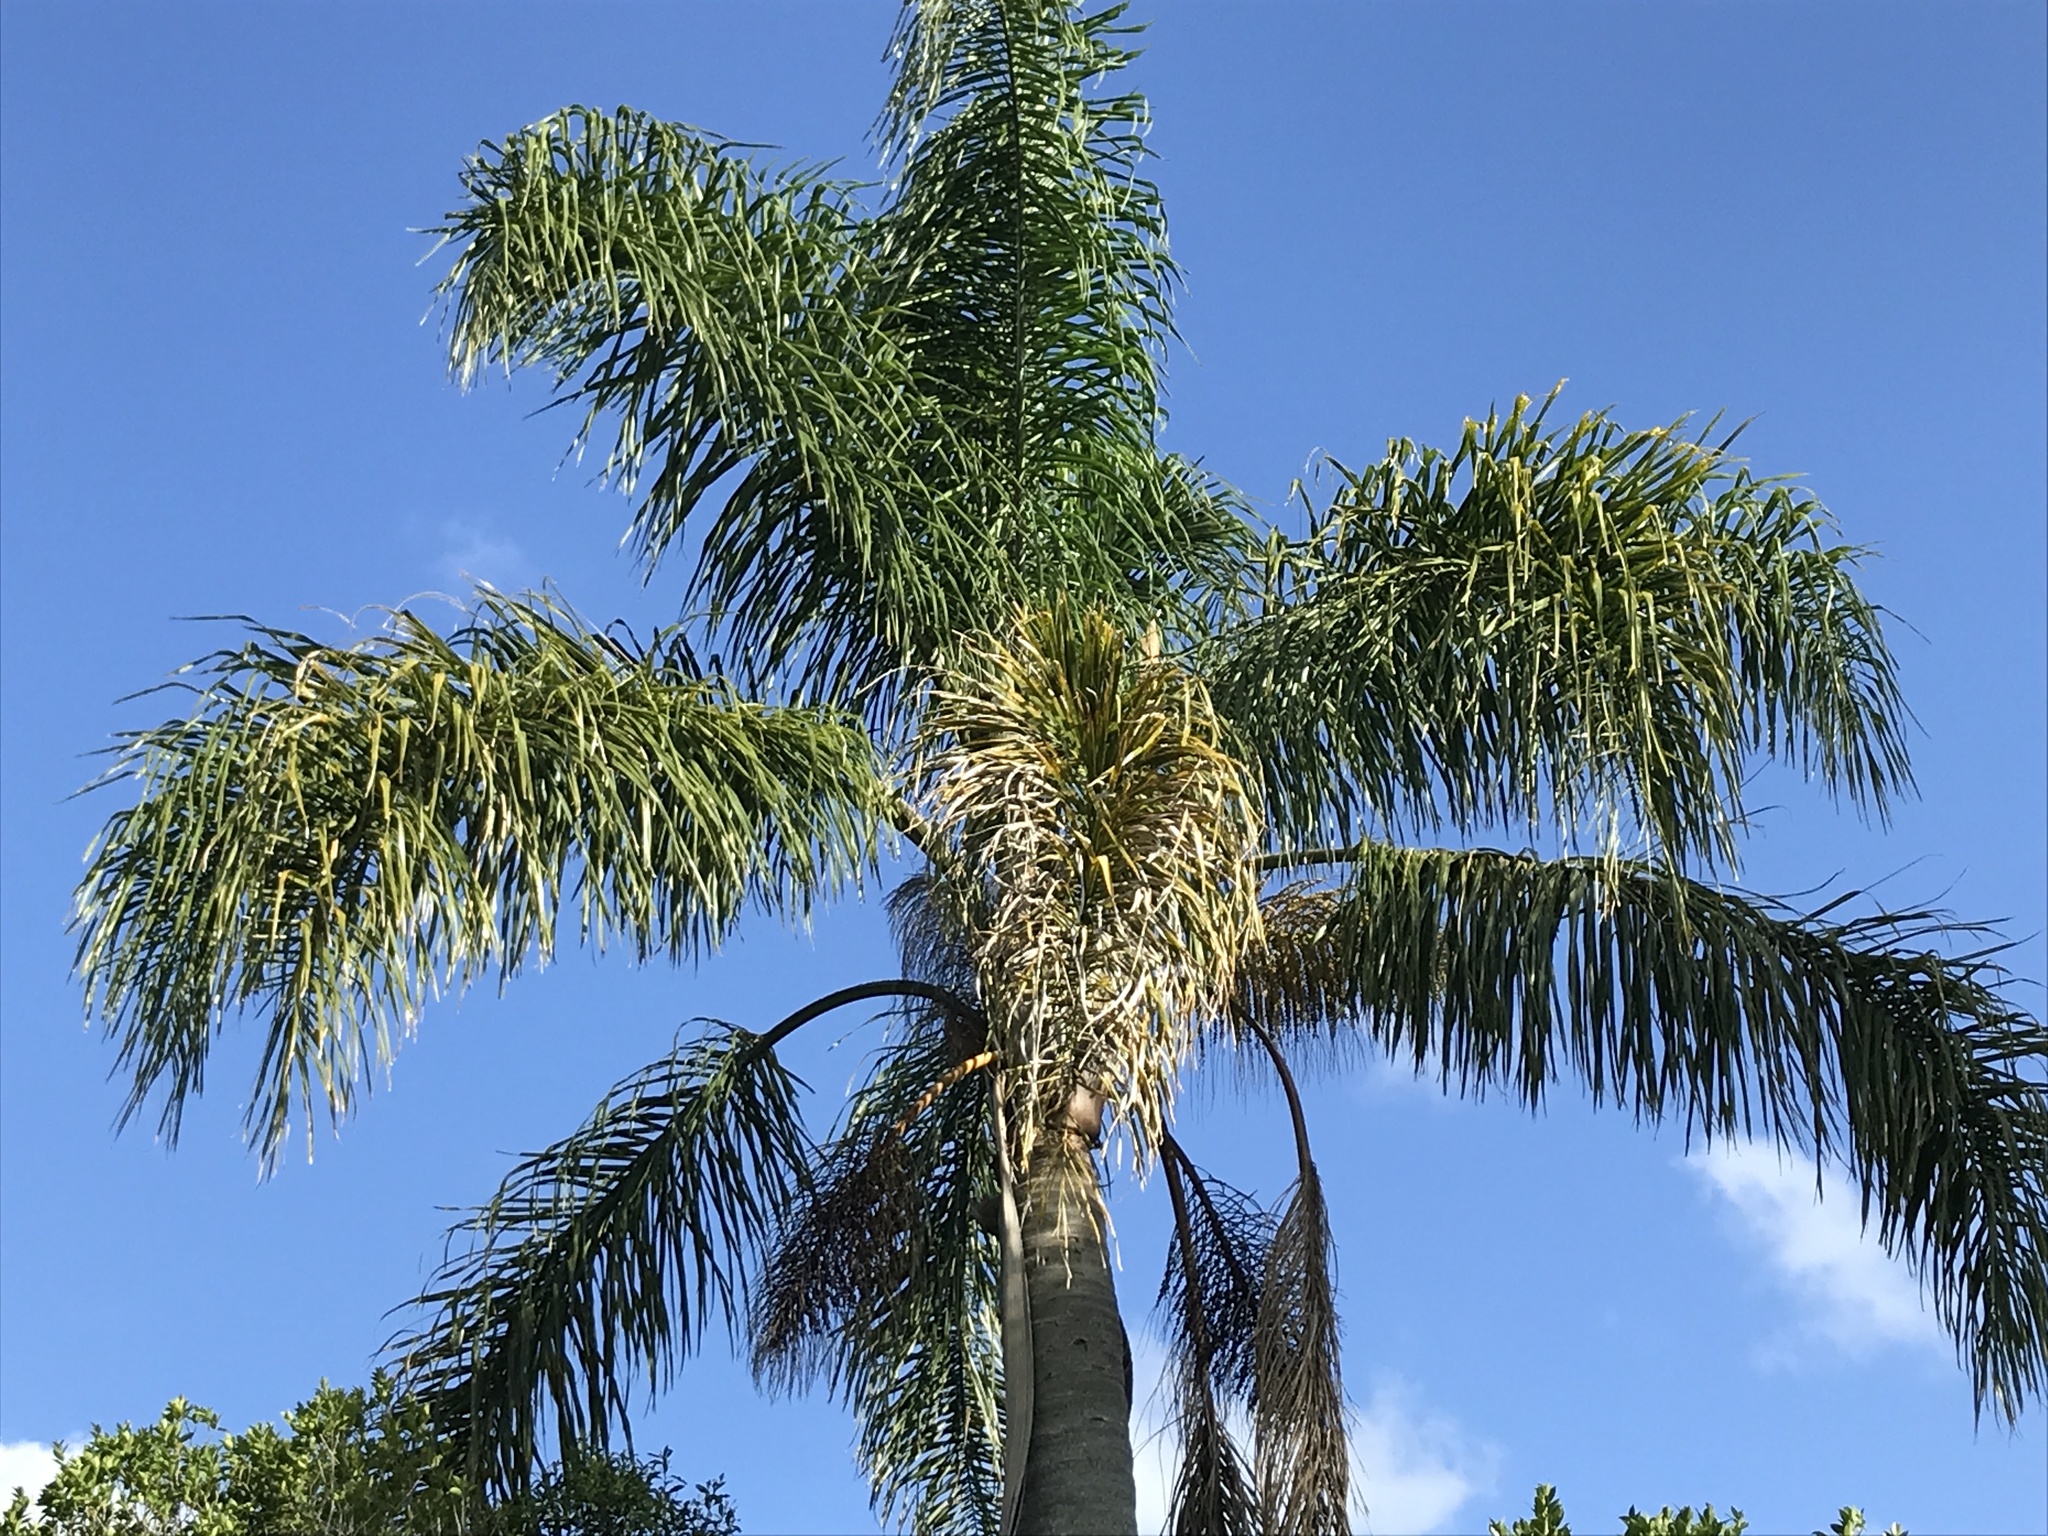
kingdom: Plantae
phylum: Tracheophyta
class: Liliopsida
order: Arecales
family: Arecaceae
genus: Syagrus
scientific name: Syagrus romanzoffiana
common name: Queen palm
